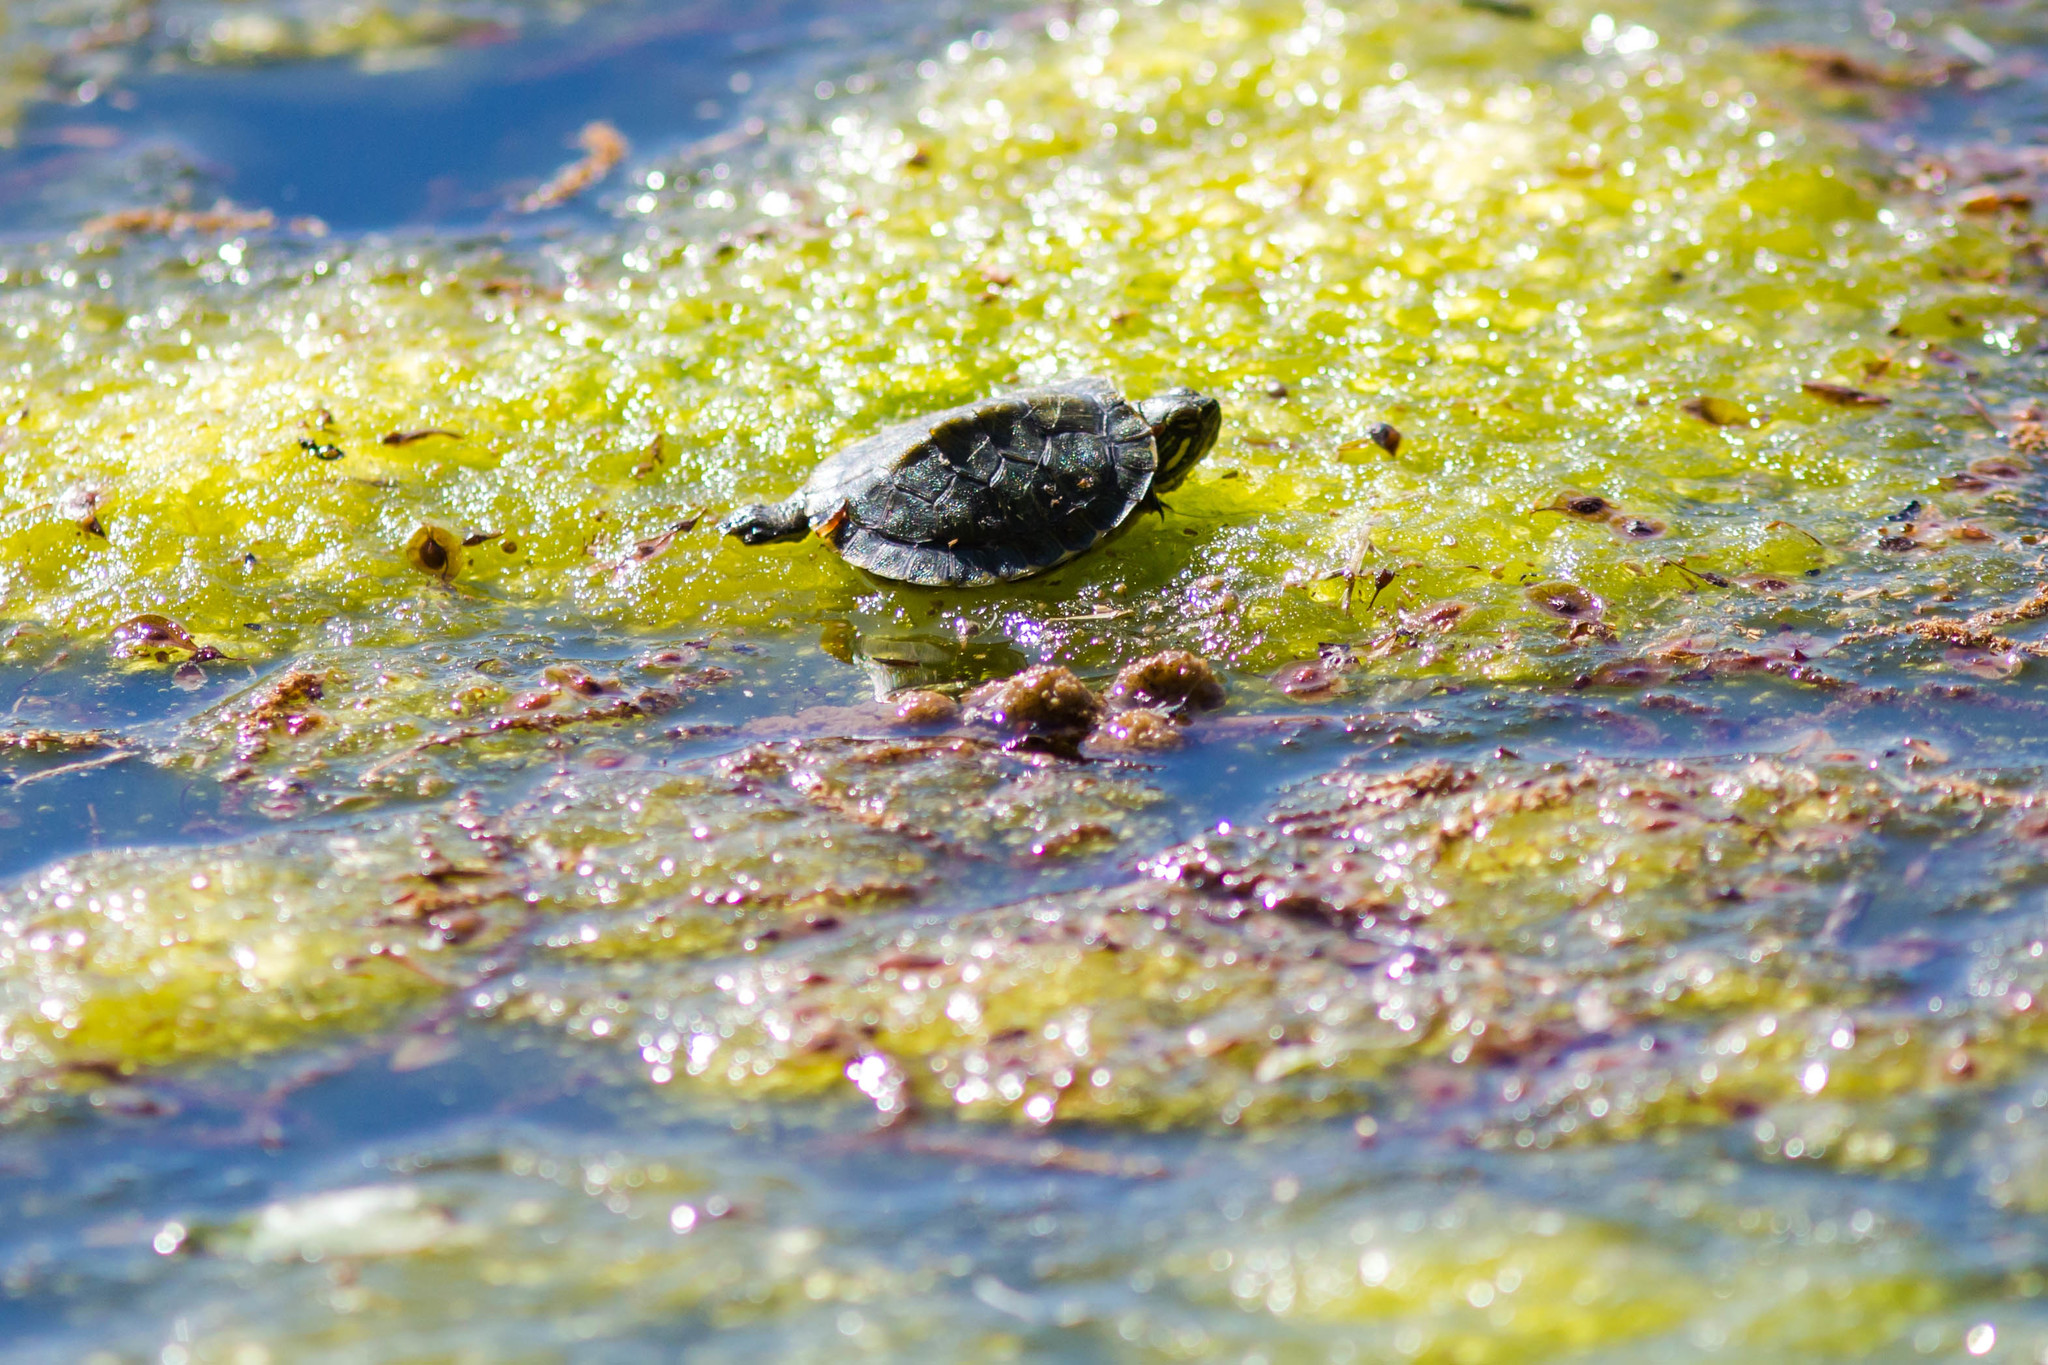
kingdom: Animalia
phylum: Chordata
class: Testudines
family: Emydidae
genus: Trachemys
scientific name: Trachemys scripta
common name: Slider
